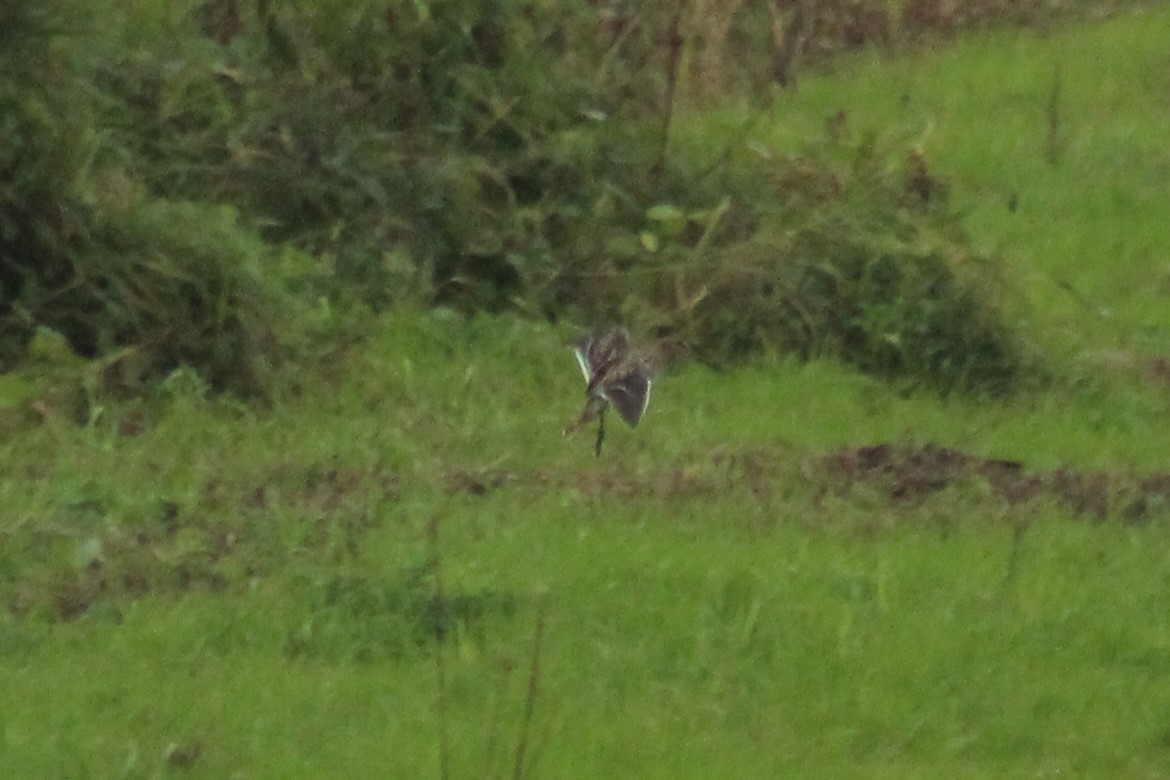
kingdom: Animalia
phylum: Chordata
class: Aves
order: Charadriiformes
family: Scolopacidae
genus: Gallinago
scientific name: Gallinago gallinago
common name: Common snipe
